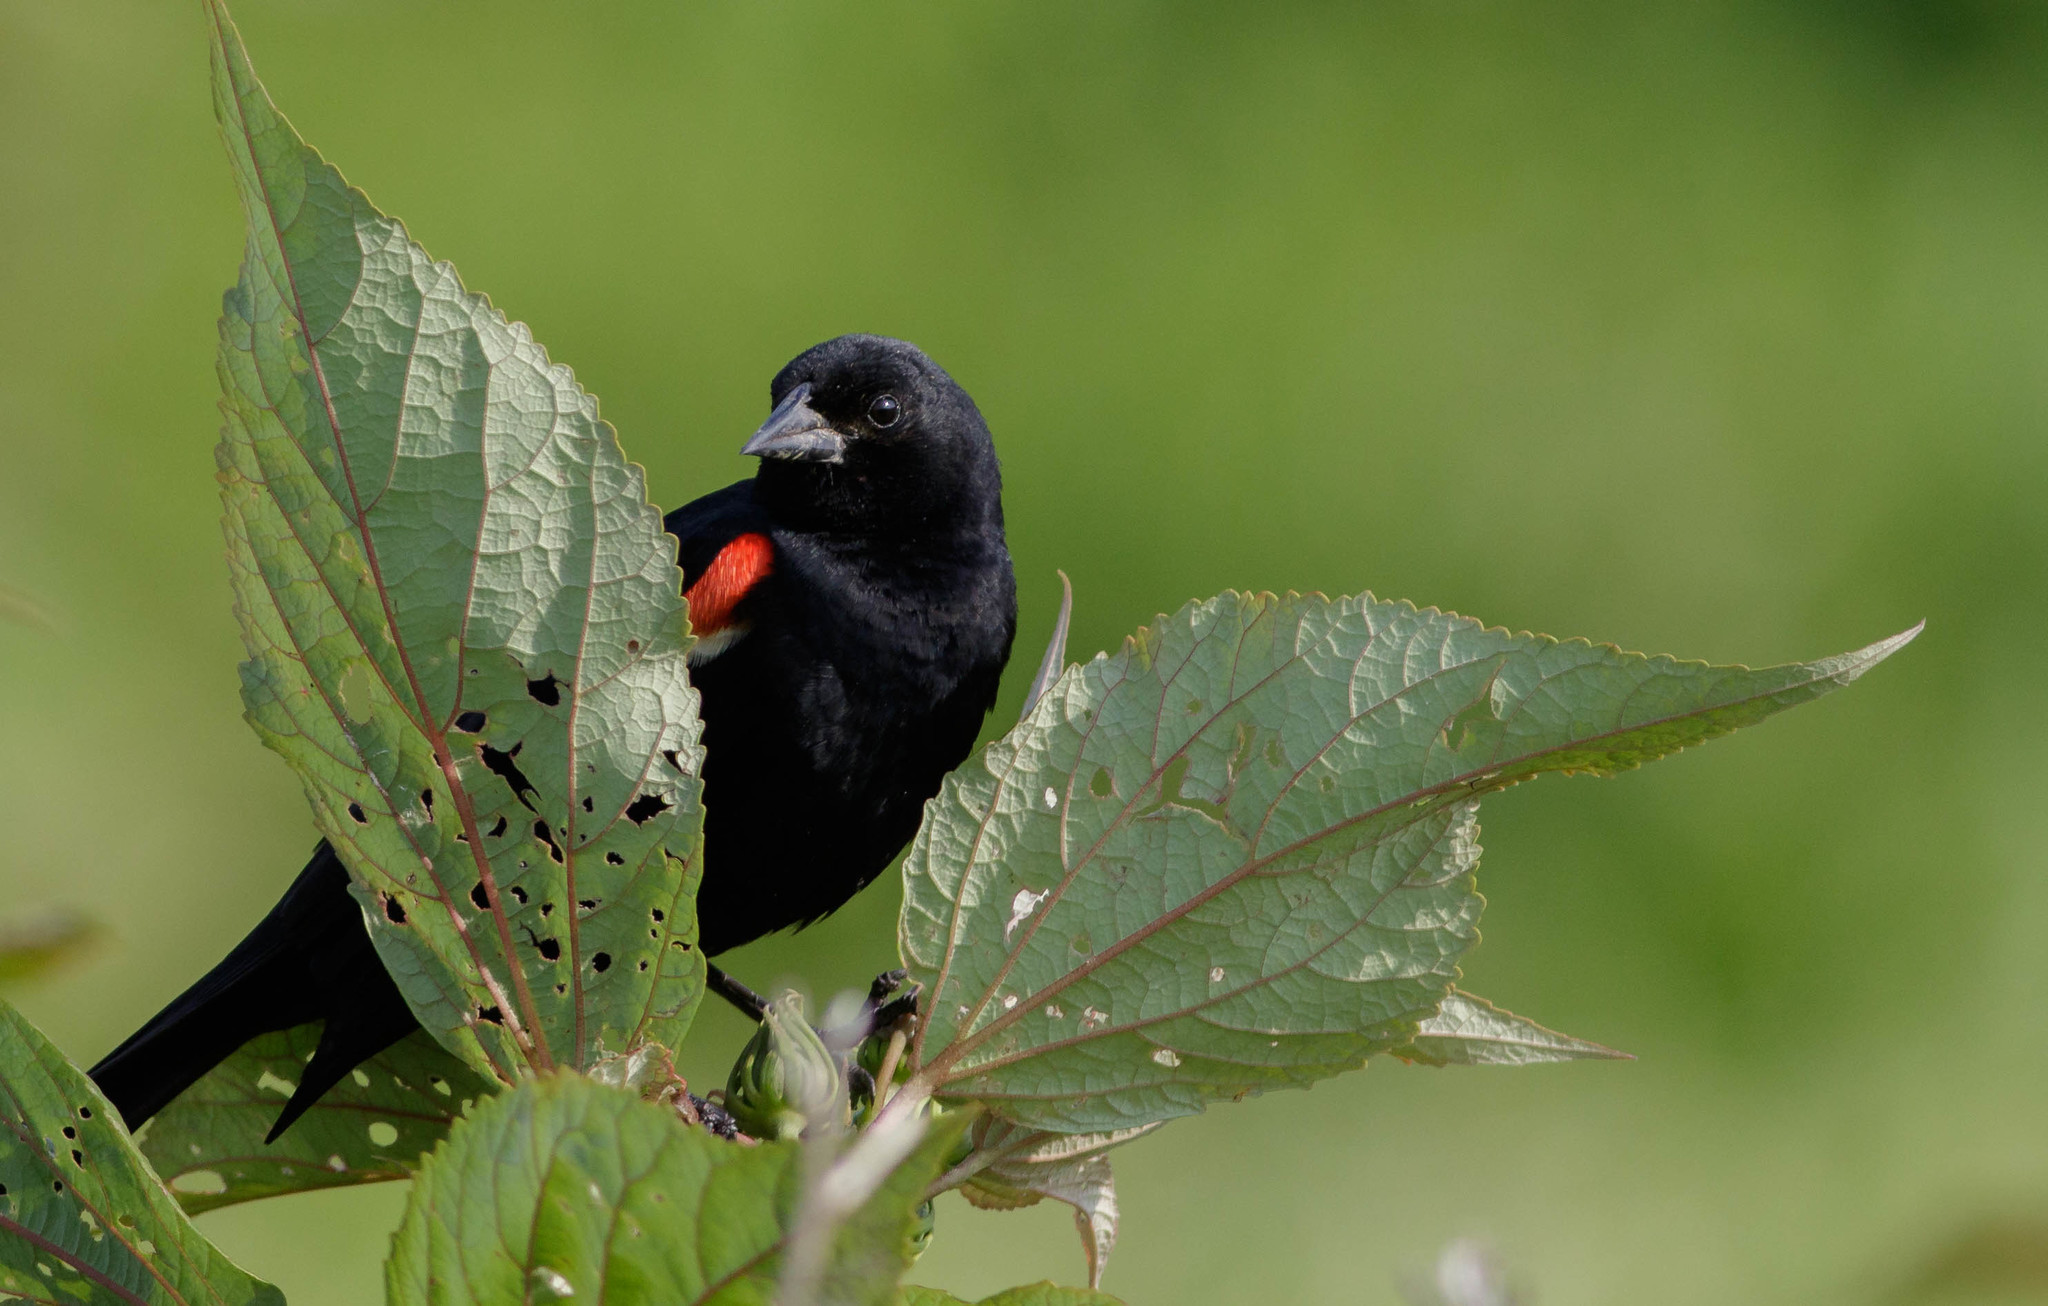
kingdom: Animalia
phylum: Chordata
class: Aves
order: Passeriformes
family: Icteridae
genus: Agelaius
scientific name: Agelaius phoeniceus
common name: Red-winged blackbird
